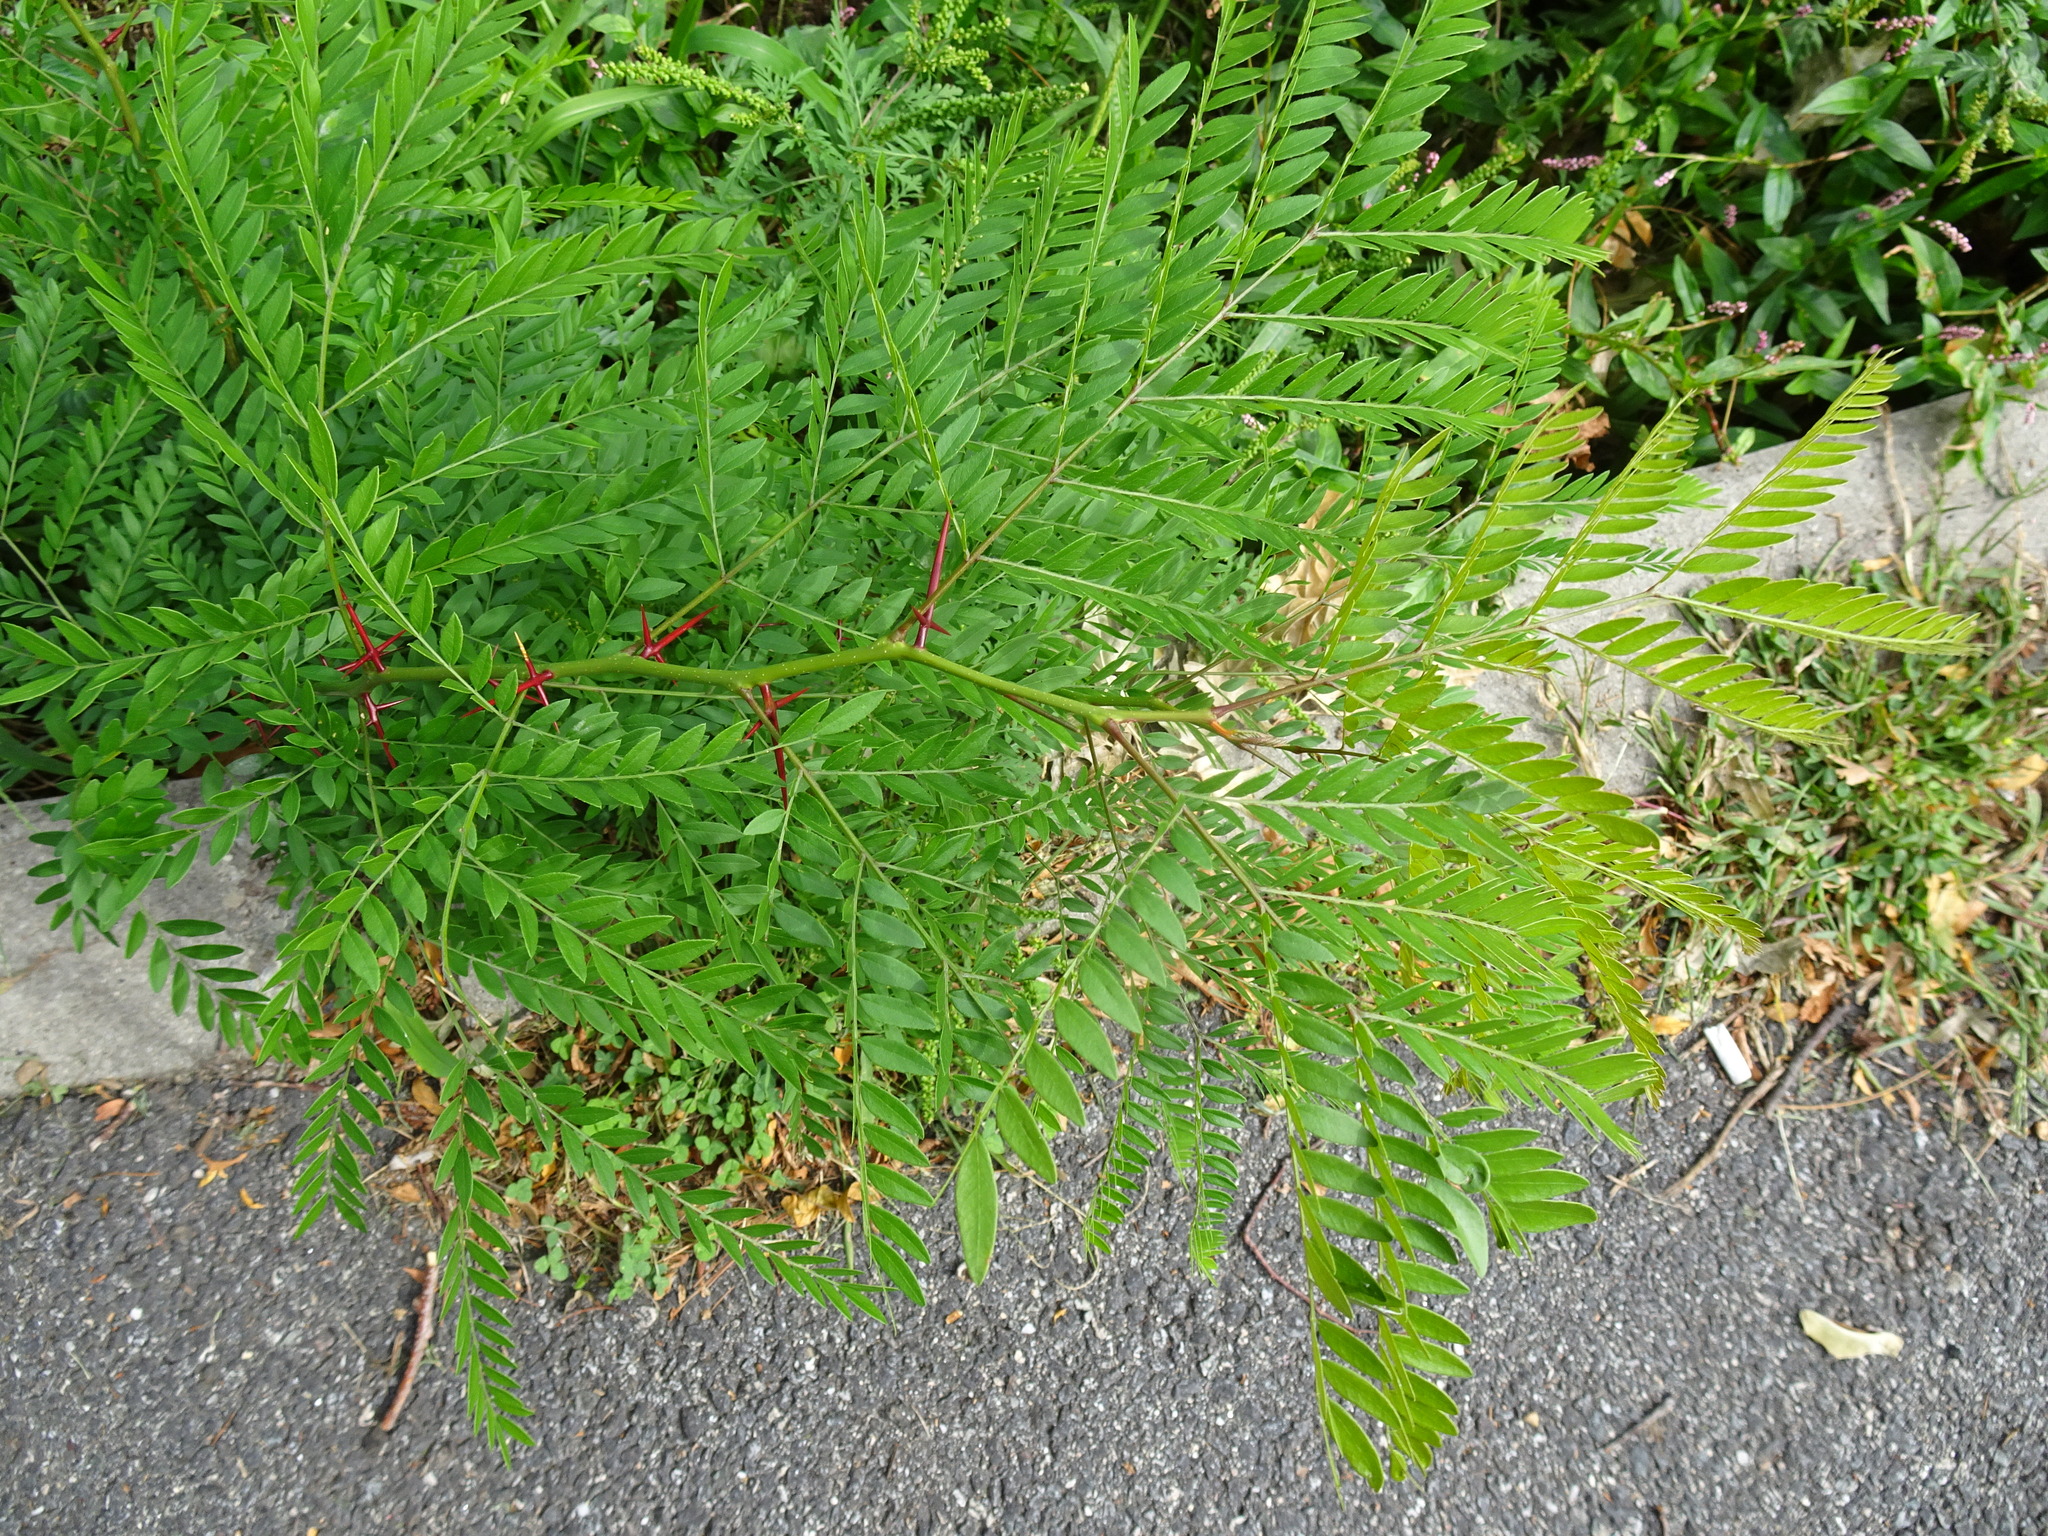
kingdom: Plantae
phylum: Tracheophyta
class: Magnoliopsida
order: Fabales
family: Fabaceae
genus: Gleditsia
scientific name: Gleditsia triacanthos
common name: Common honeylocust
